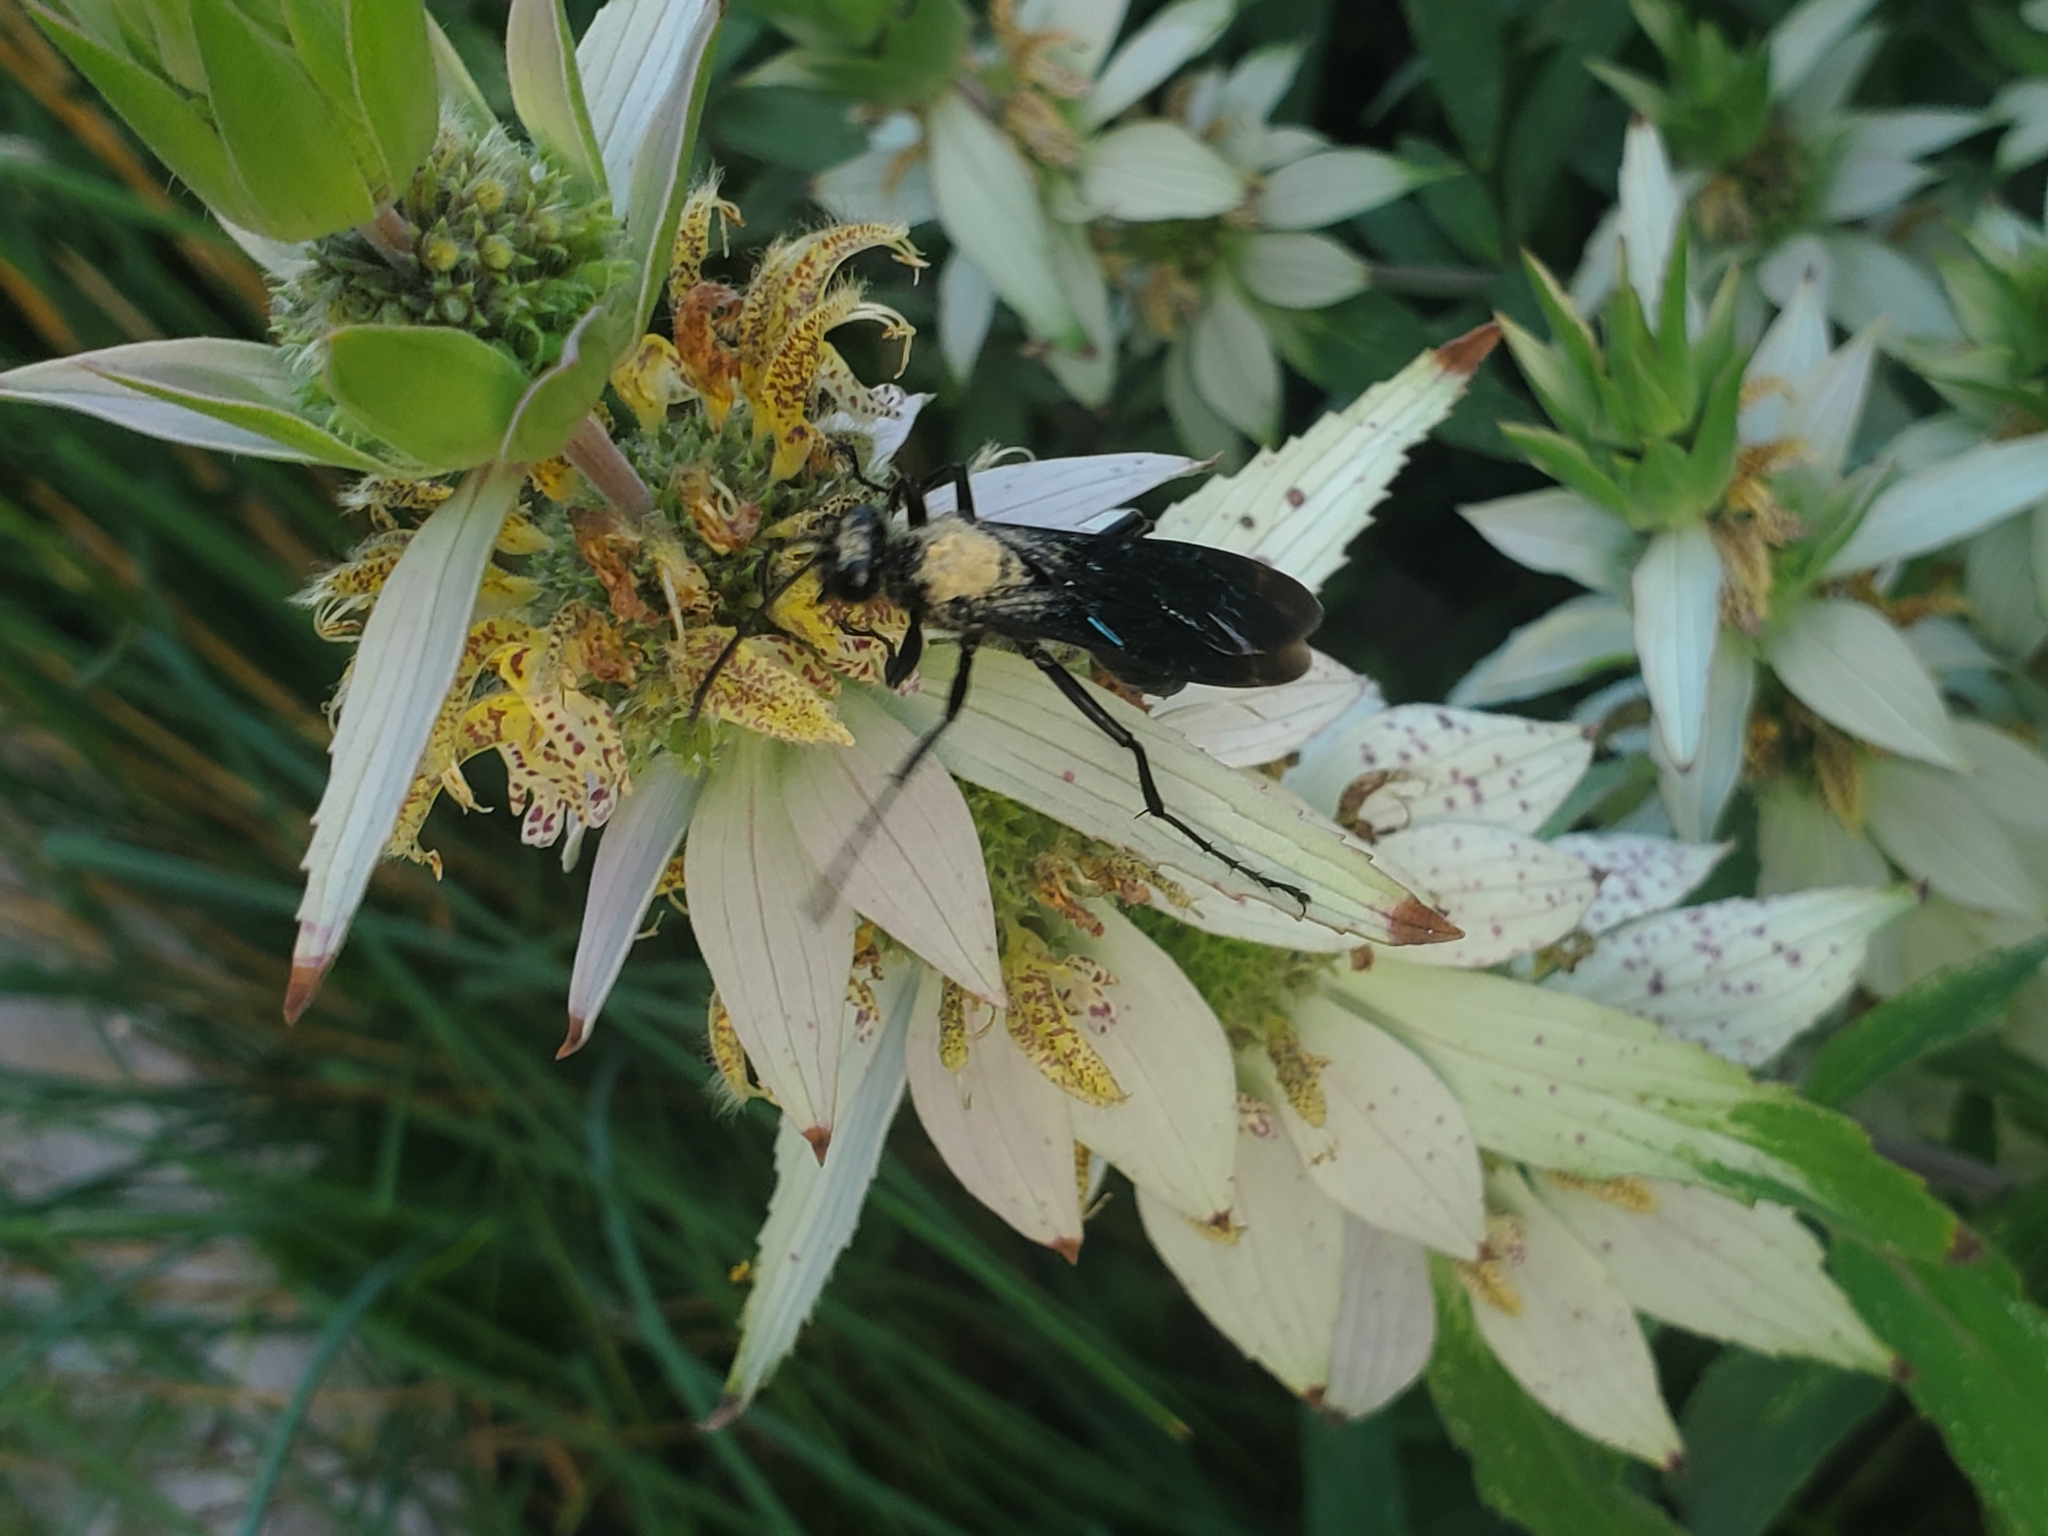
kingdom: Animalia
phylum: Arthropoda
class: Insecta
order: Hymenoptera
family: Sphecidae
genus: Sphex
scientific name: Sphex pensylvanicus
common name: Great black digger wasp
